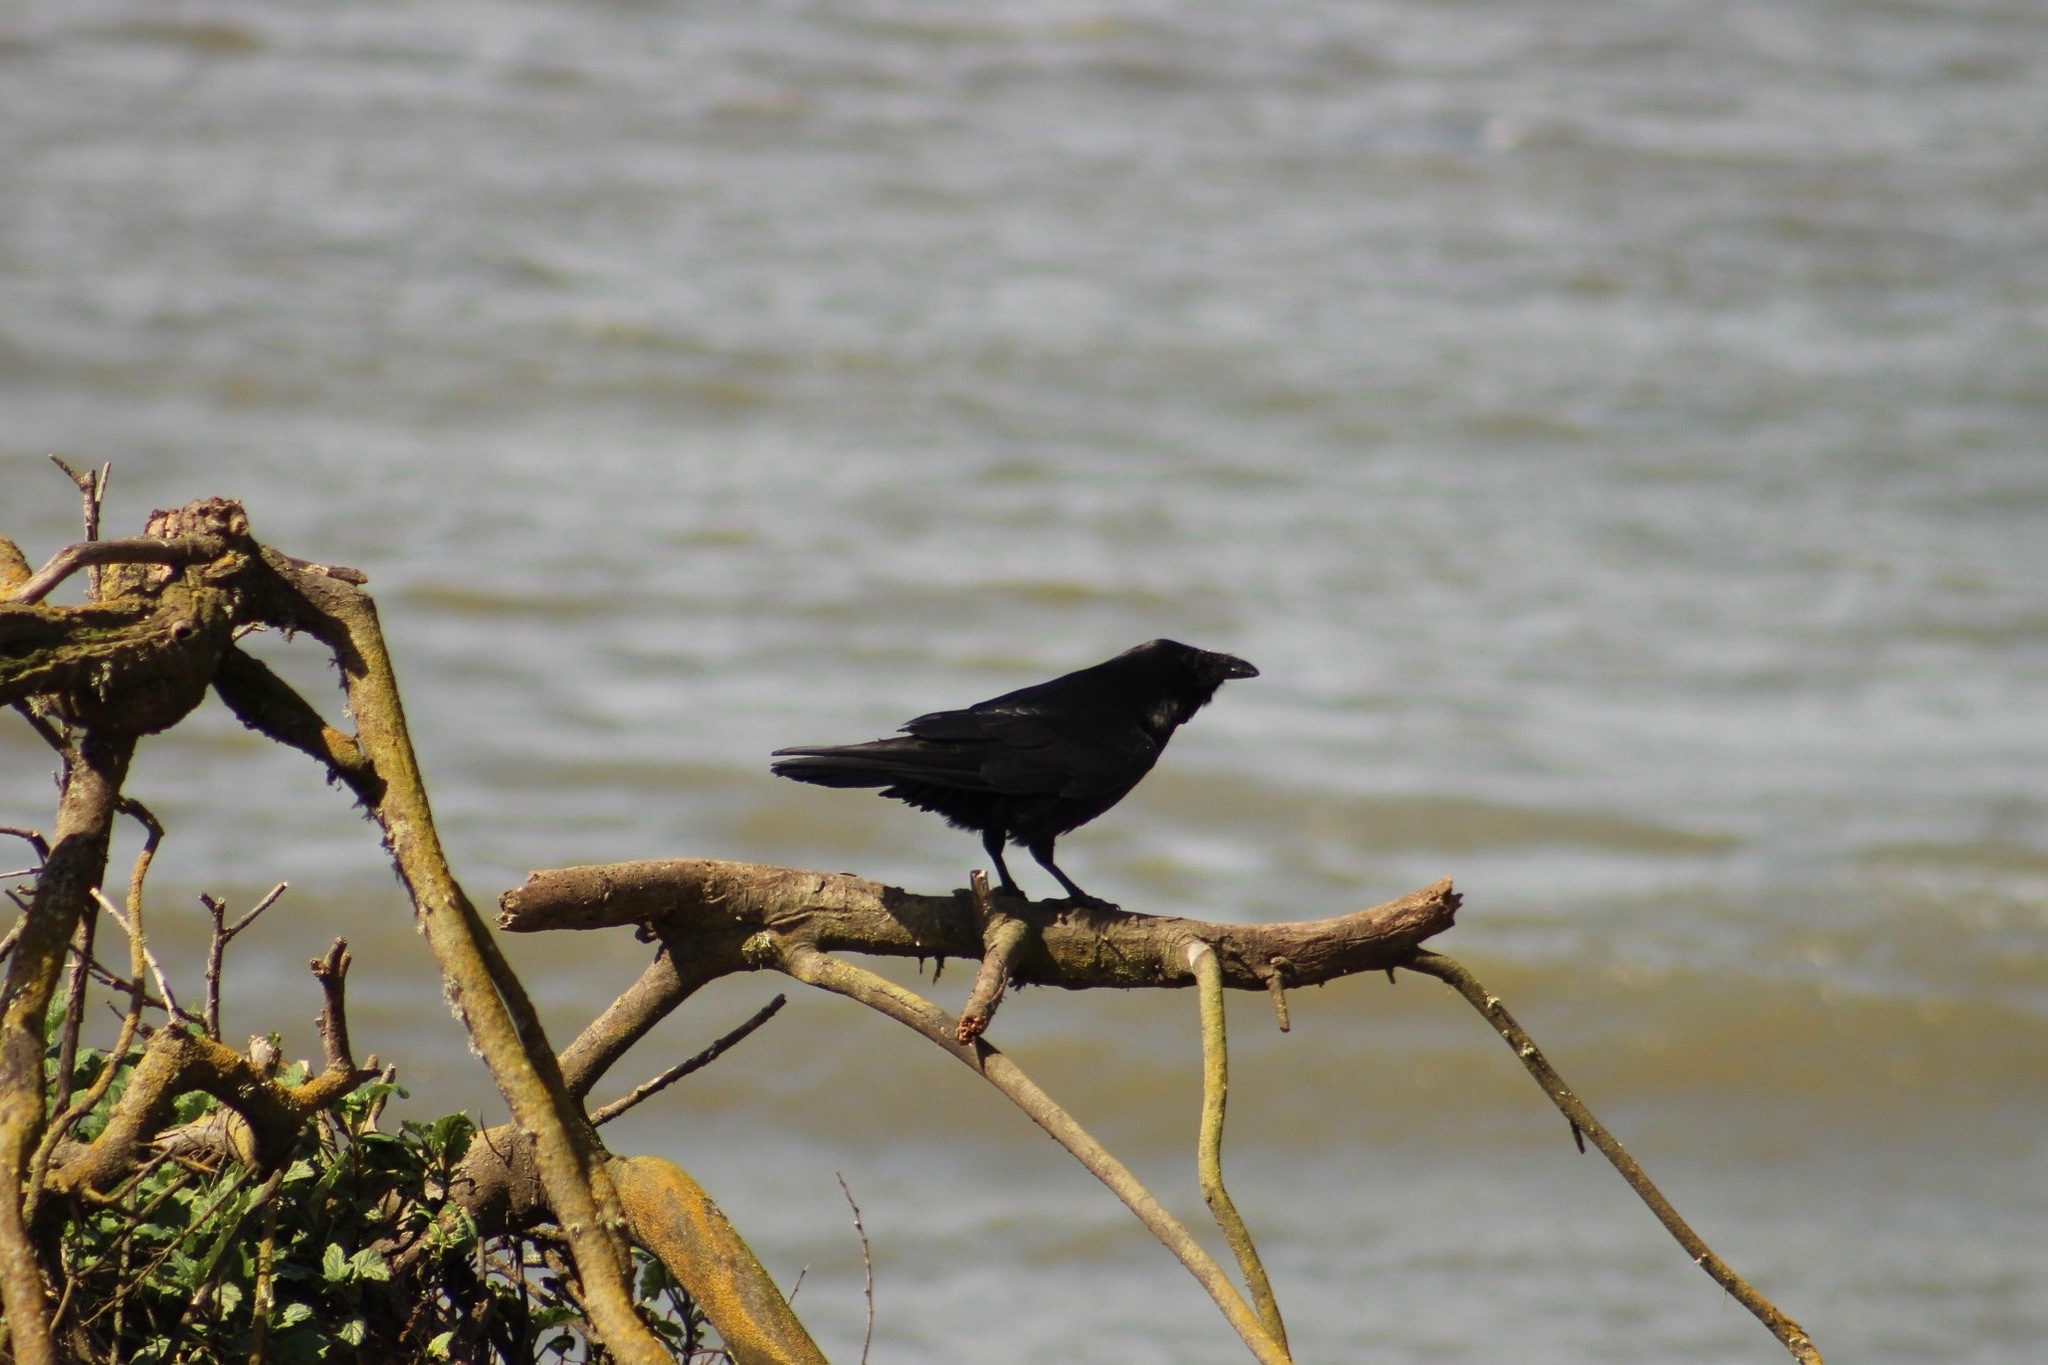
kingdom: Animalia
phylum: Chordata
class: Aves
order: Passeriformes
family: Corvidae
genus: Corvus
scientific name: Corvus brachyrhynchos
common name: American crow
